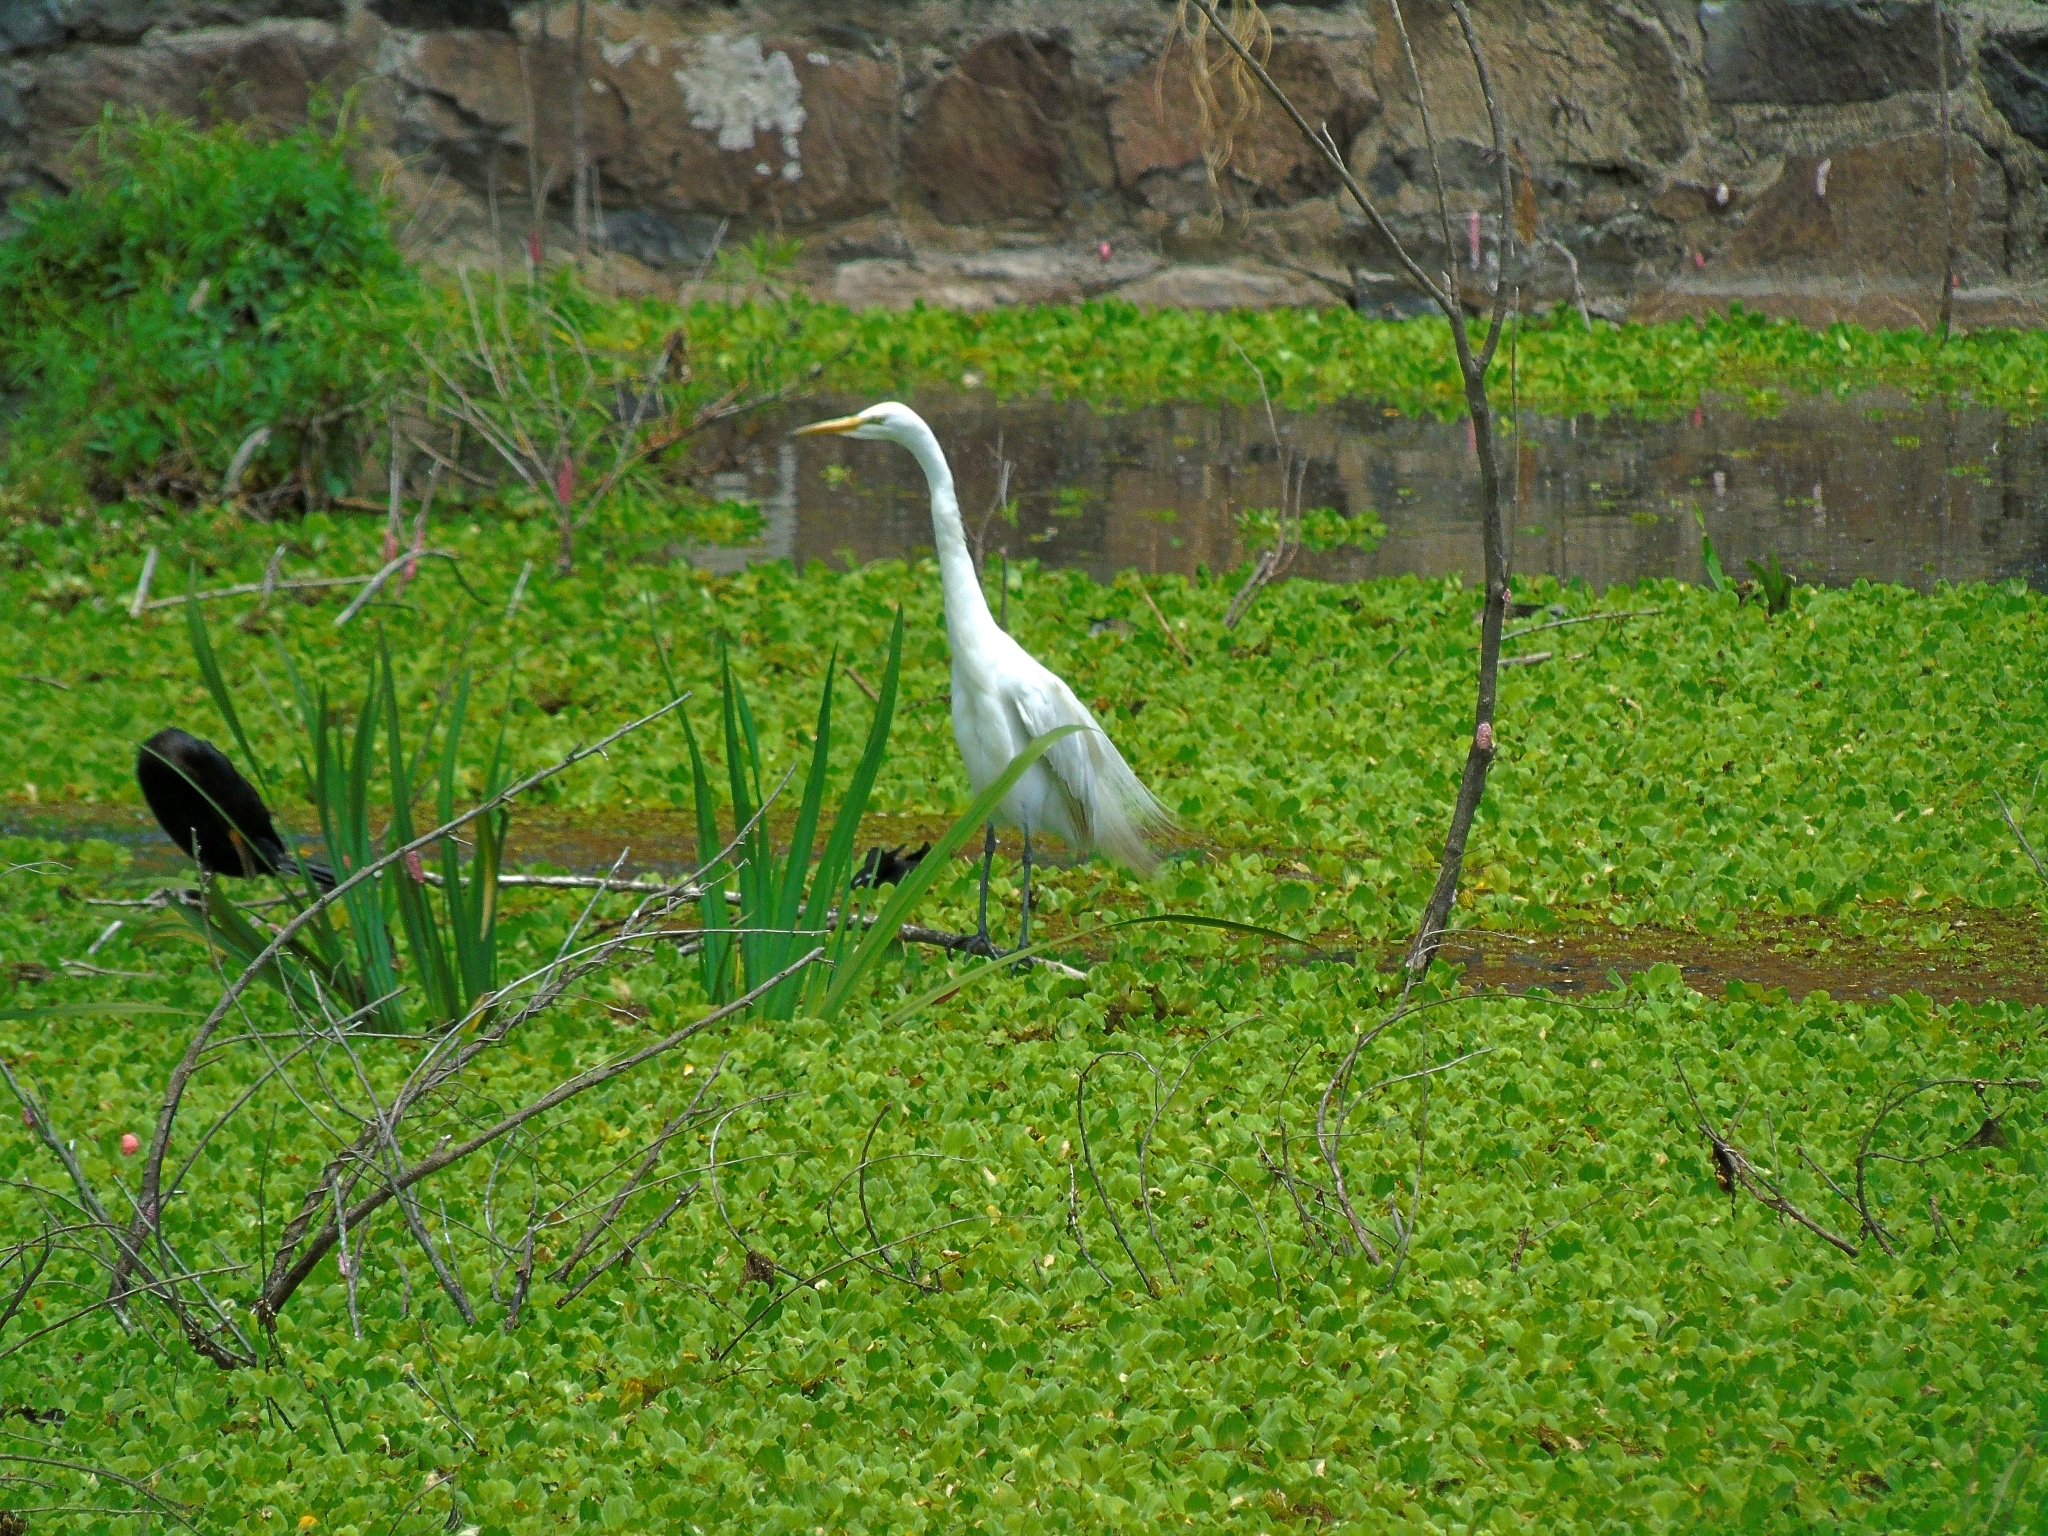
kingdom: Animalia
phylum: Chordata
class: Aves
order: Pelecaniformes
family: Ardeidae
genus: Ardea
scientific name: Ardea alba
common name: Great egret
